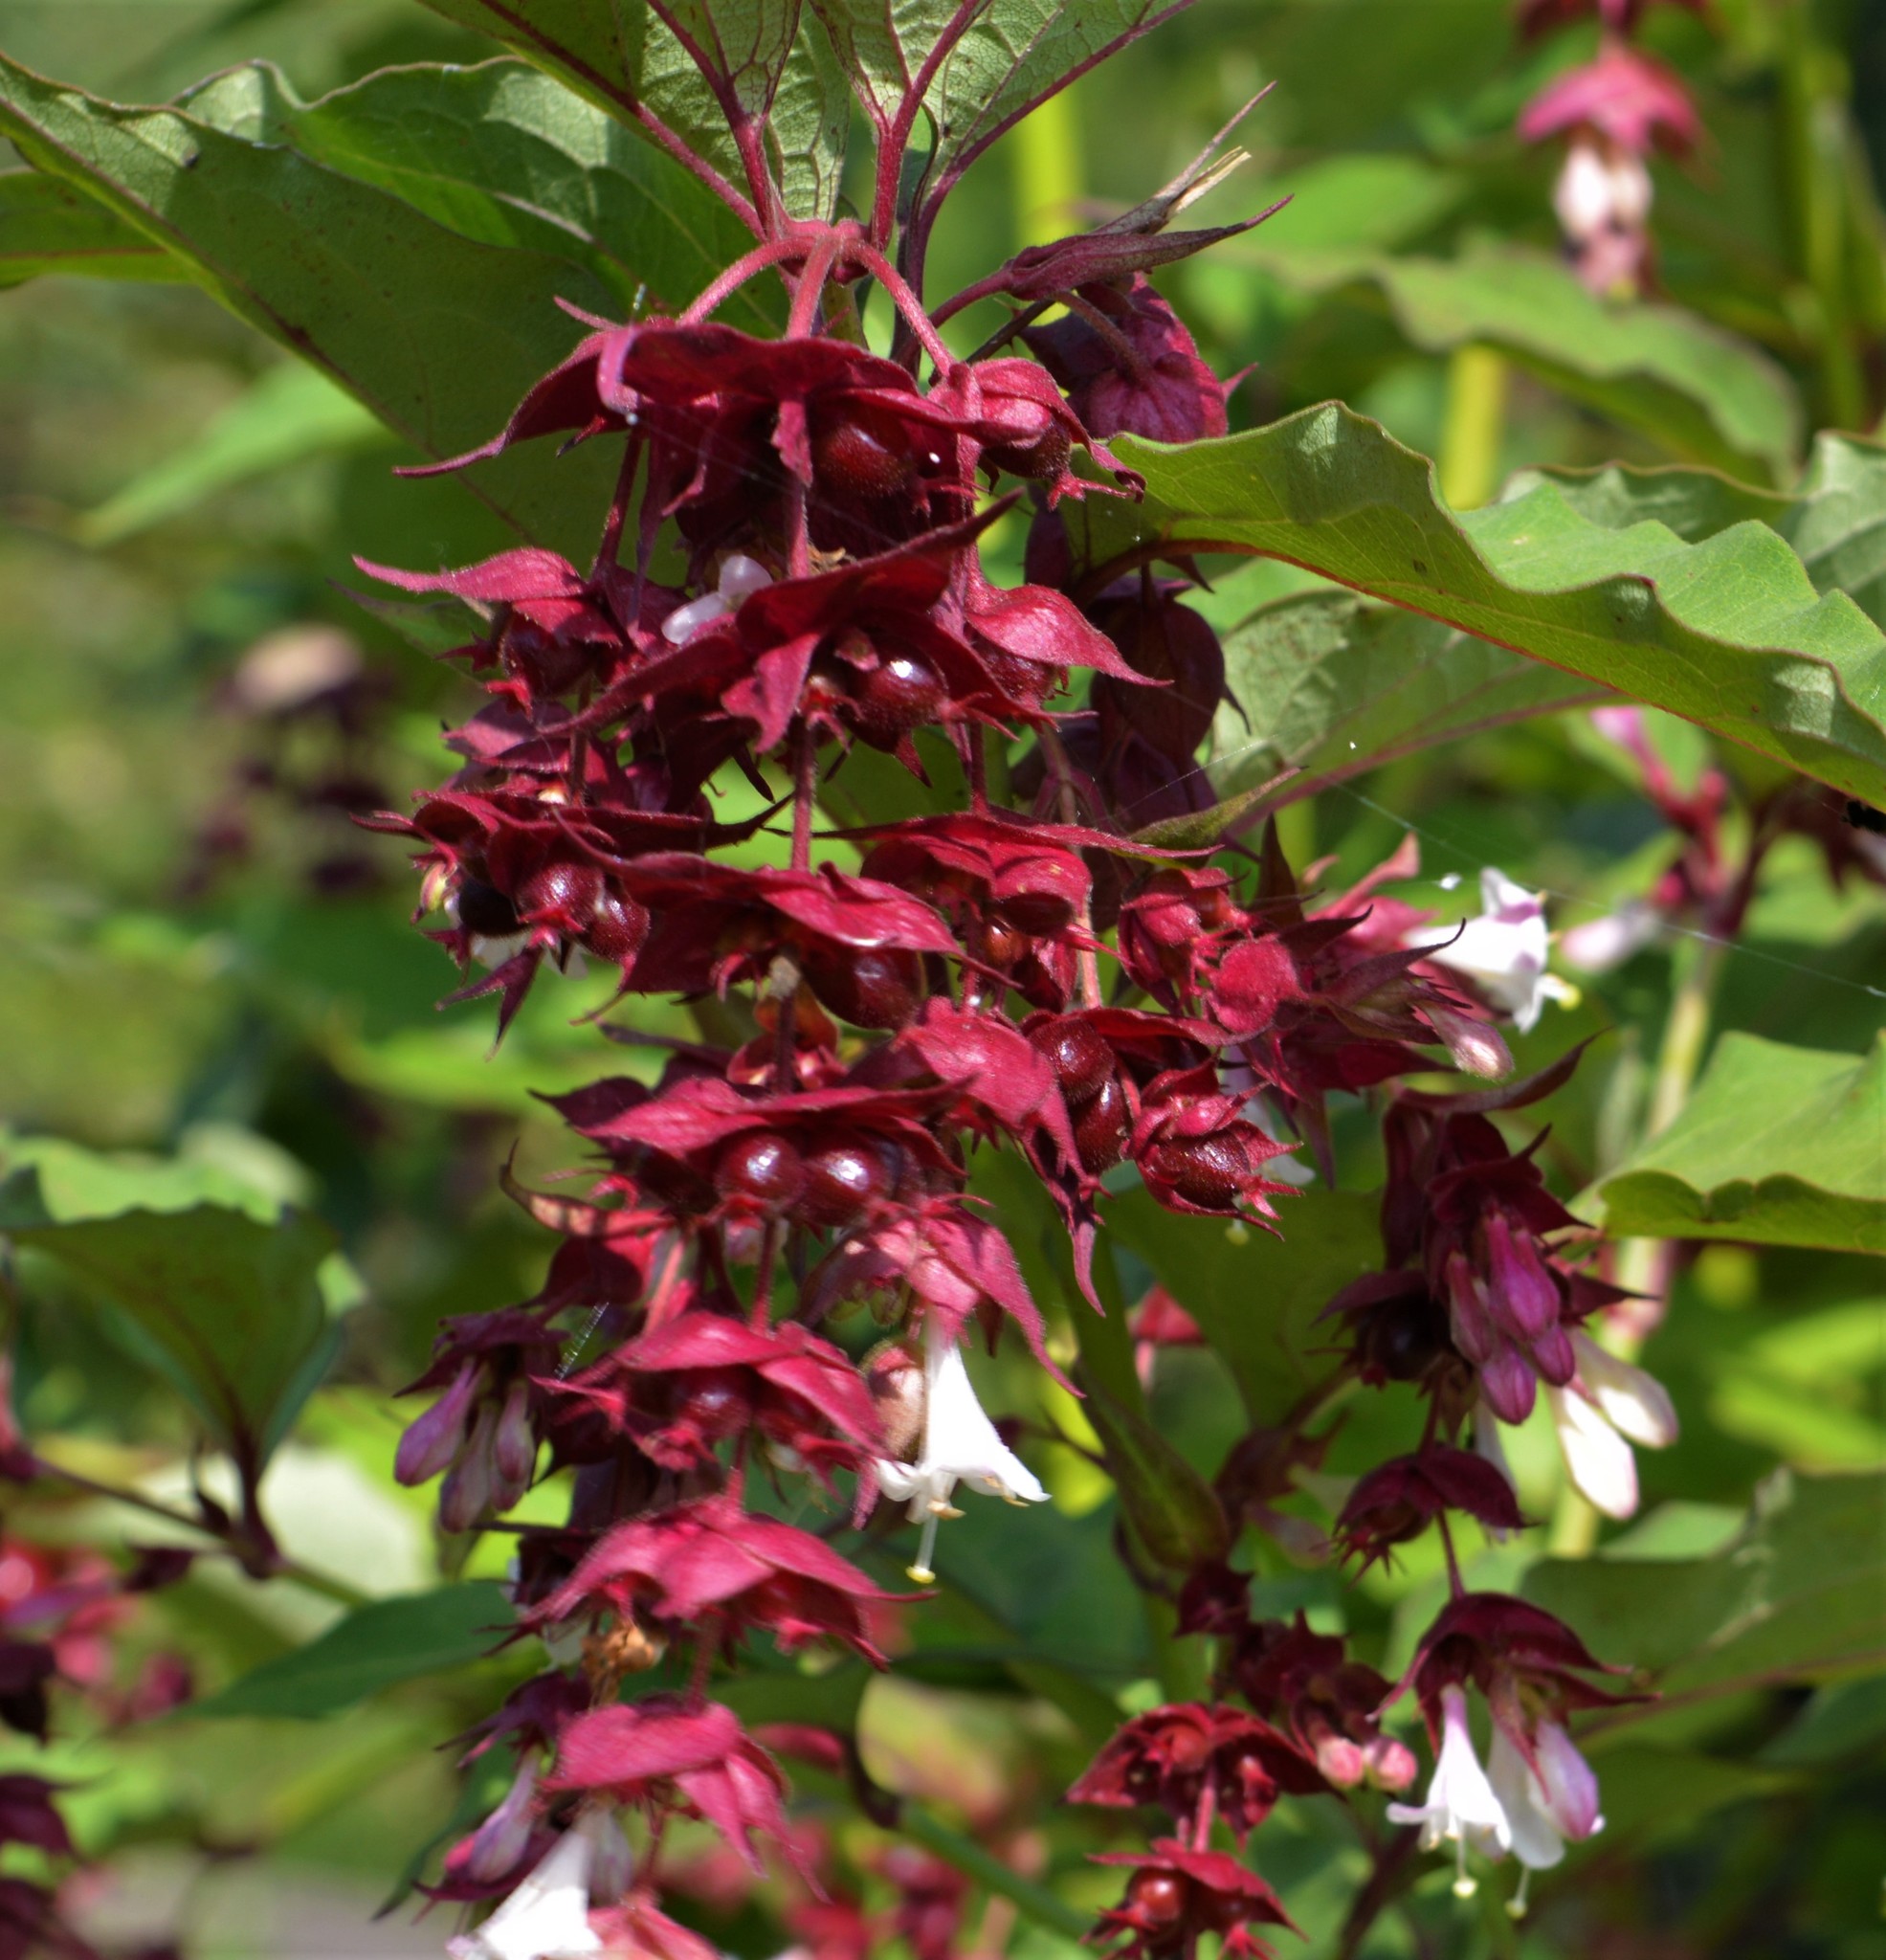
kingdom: Plantae
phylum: Tracheophyta
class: Magnoliopsida
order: Dipsacales
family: Caprifoliaceae
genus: Leycesteria
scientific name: Leycesteria formosa
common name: Himalayan honeysuckle
